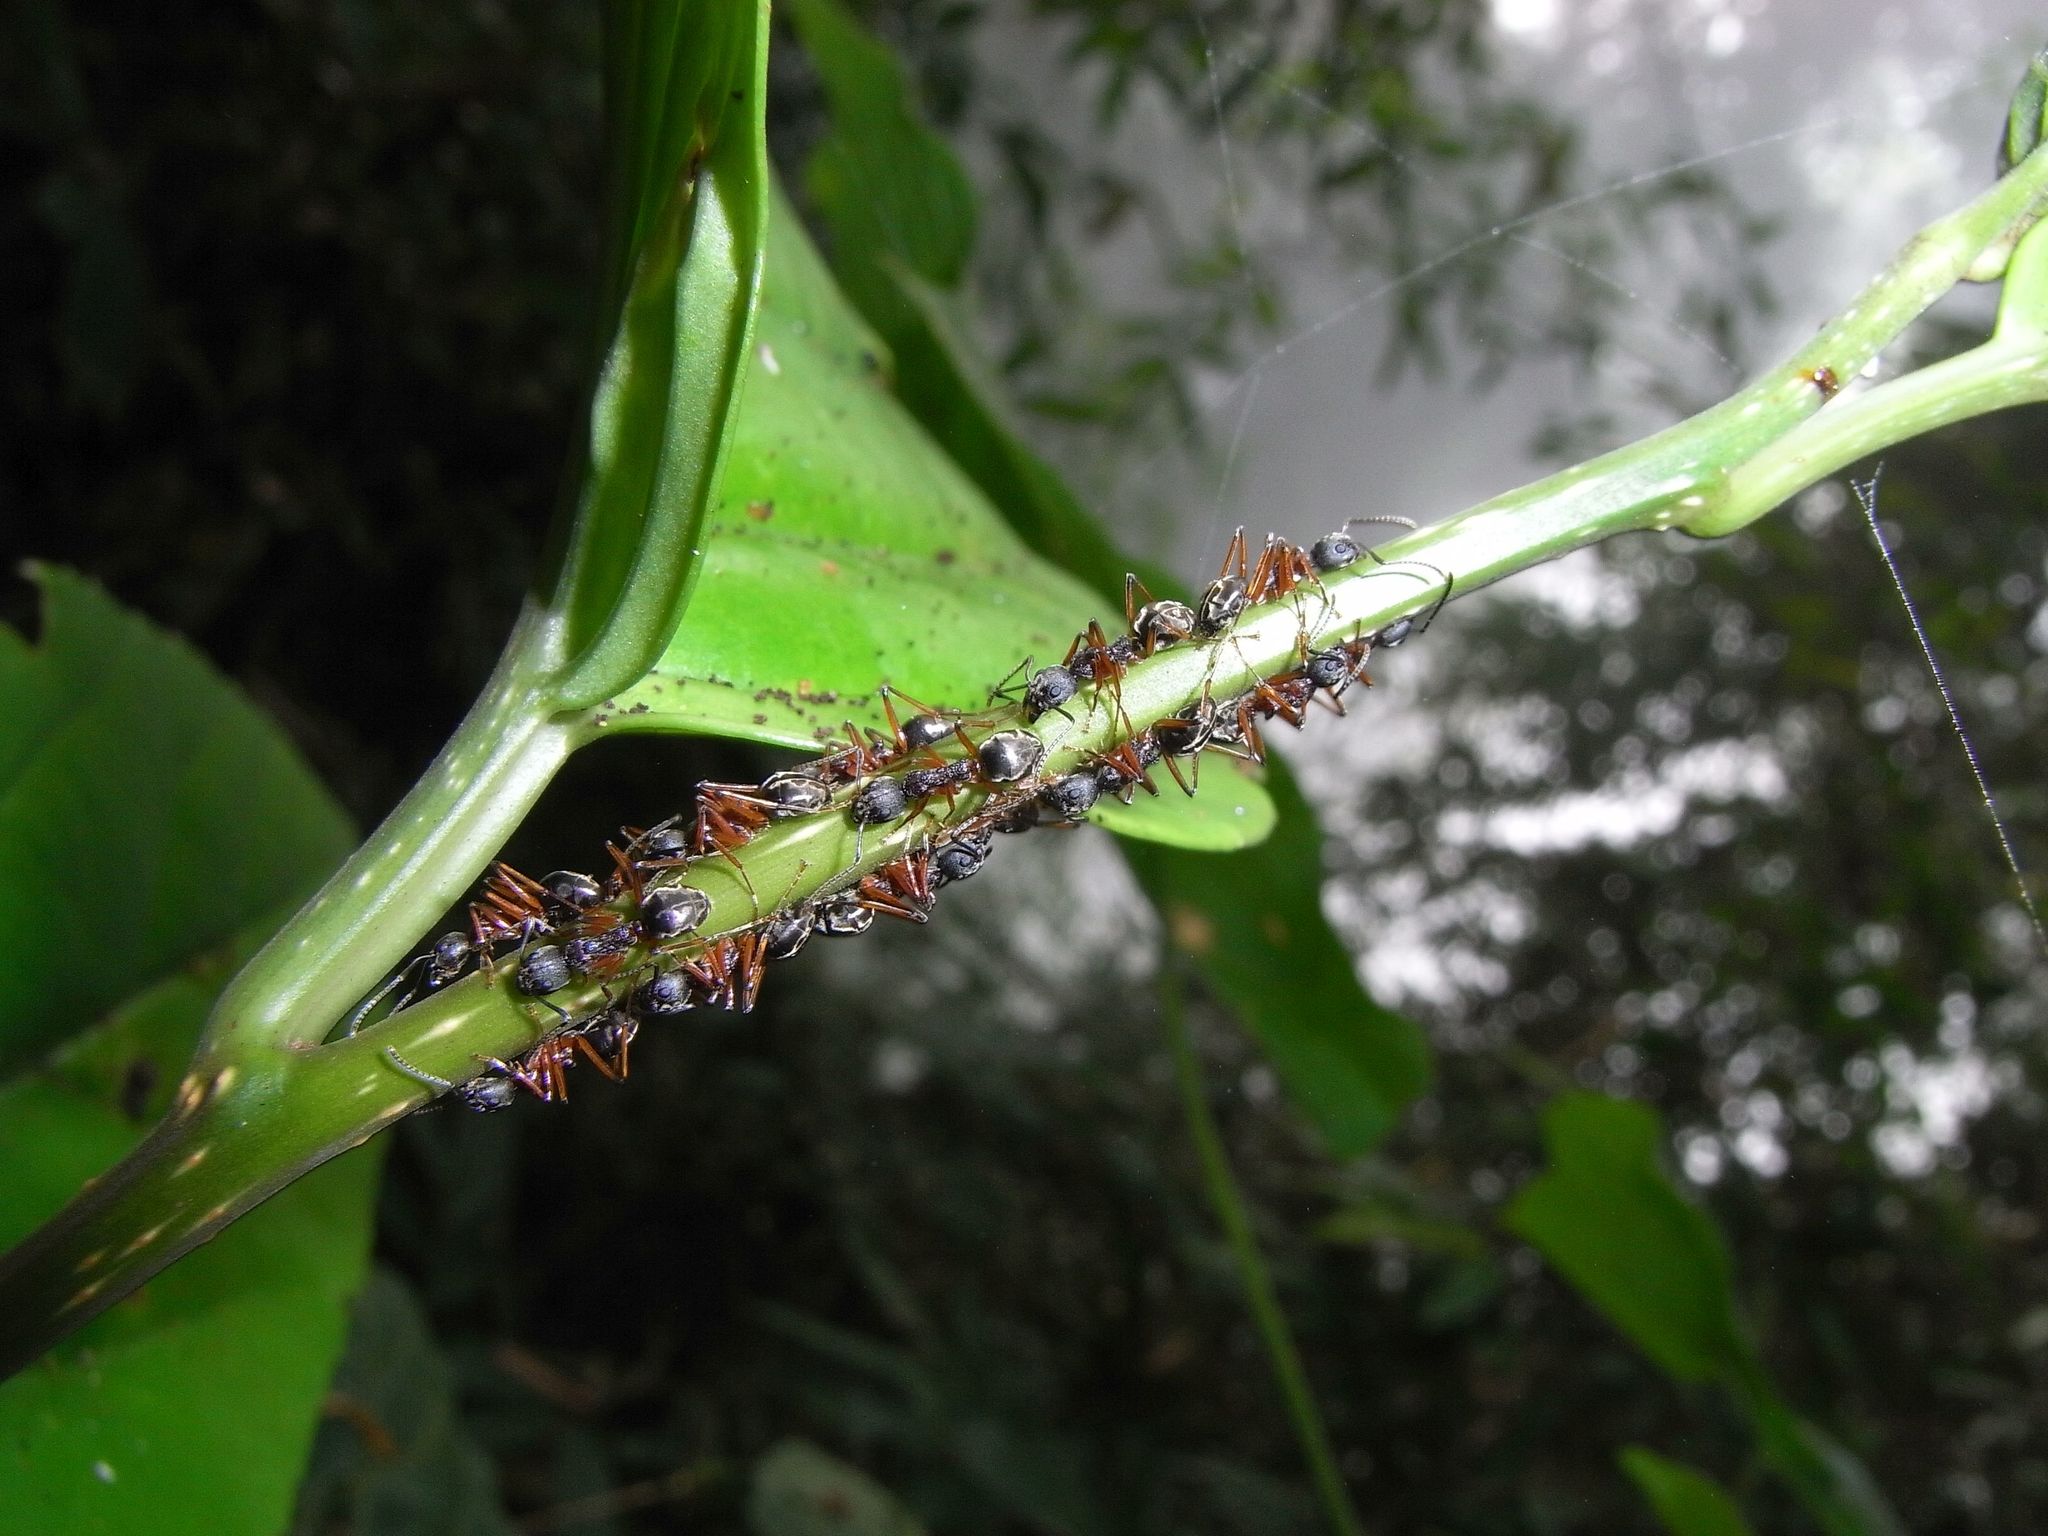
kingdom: Animalia
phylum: Arthropoda
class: Insecta
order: Hymenoptera
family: Formicidae
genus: Dolichoderus
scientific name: Dolichoderus feae
